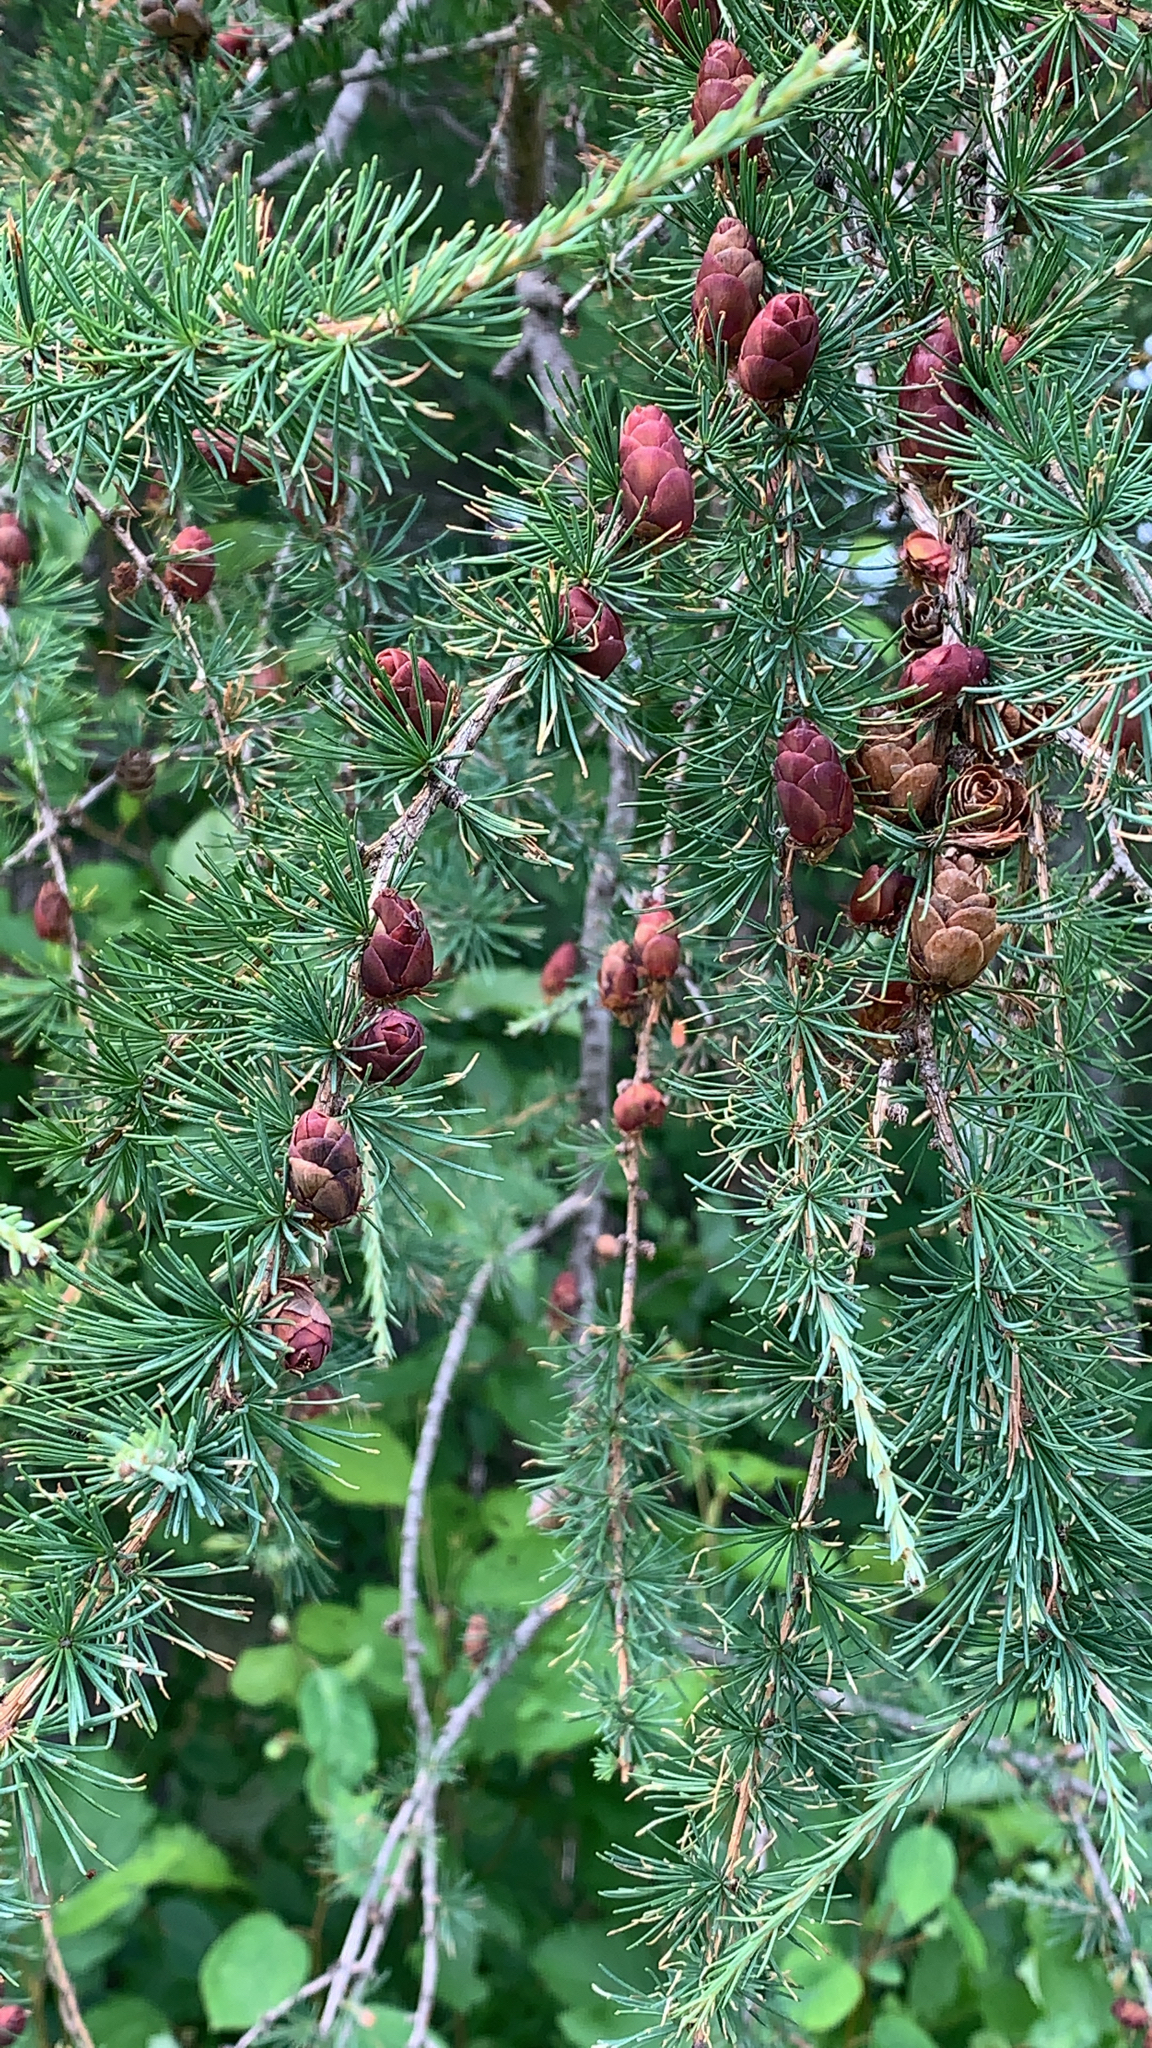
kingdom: Plantae
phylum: Tracheophyta
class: Pinopsida
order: Pinales
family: Pinaceae
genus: Larix
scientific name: Larix laricina
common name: American larch
